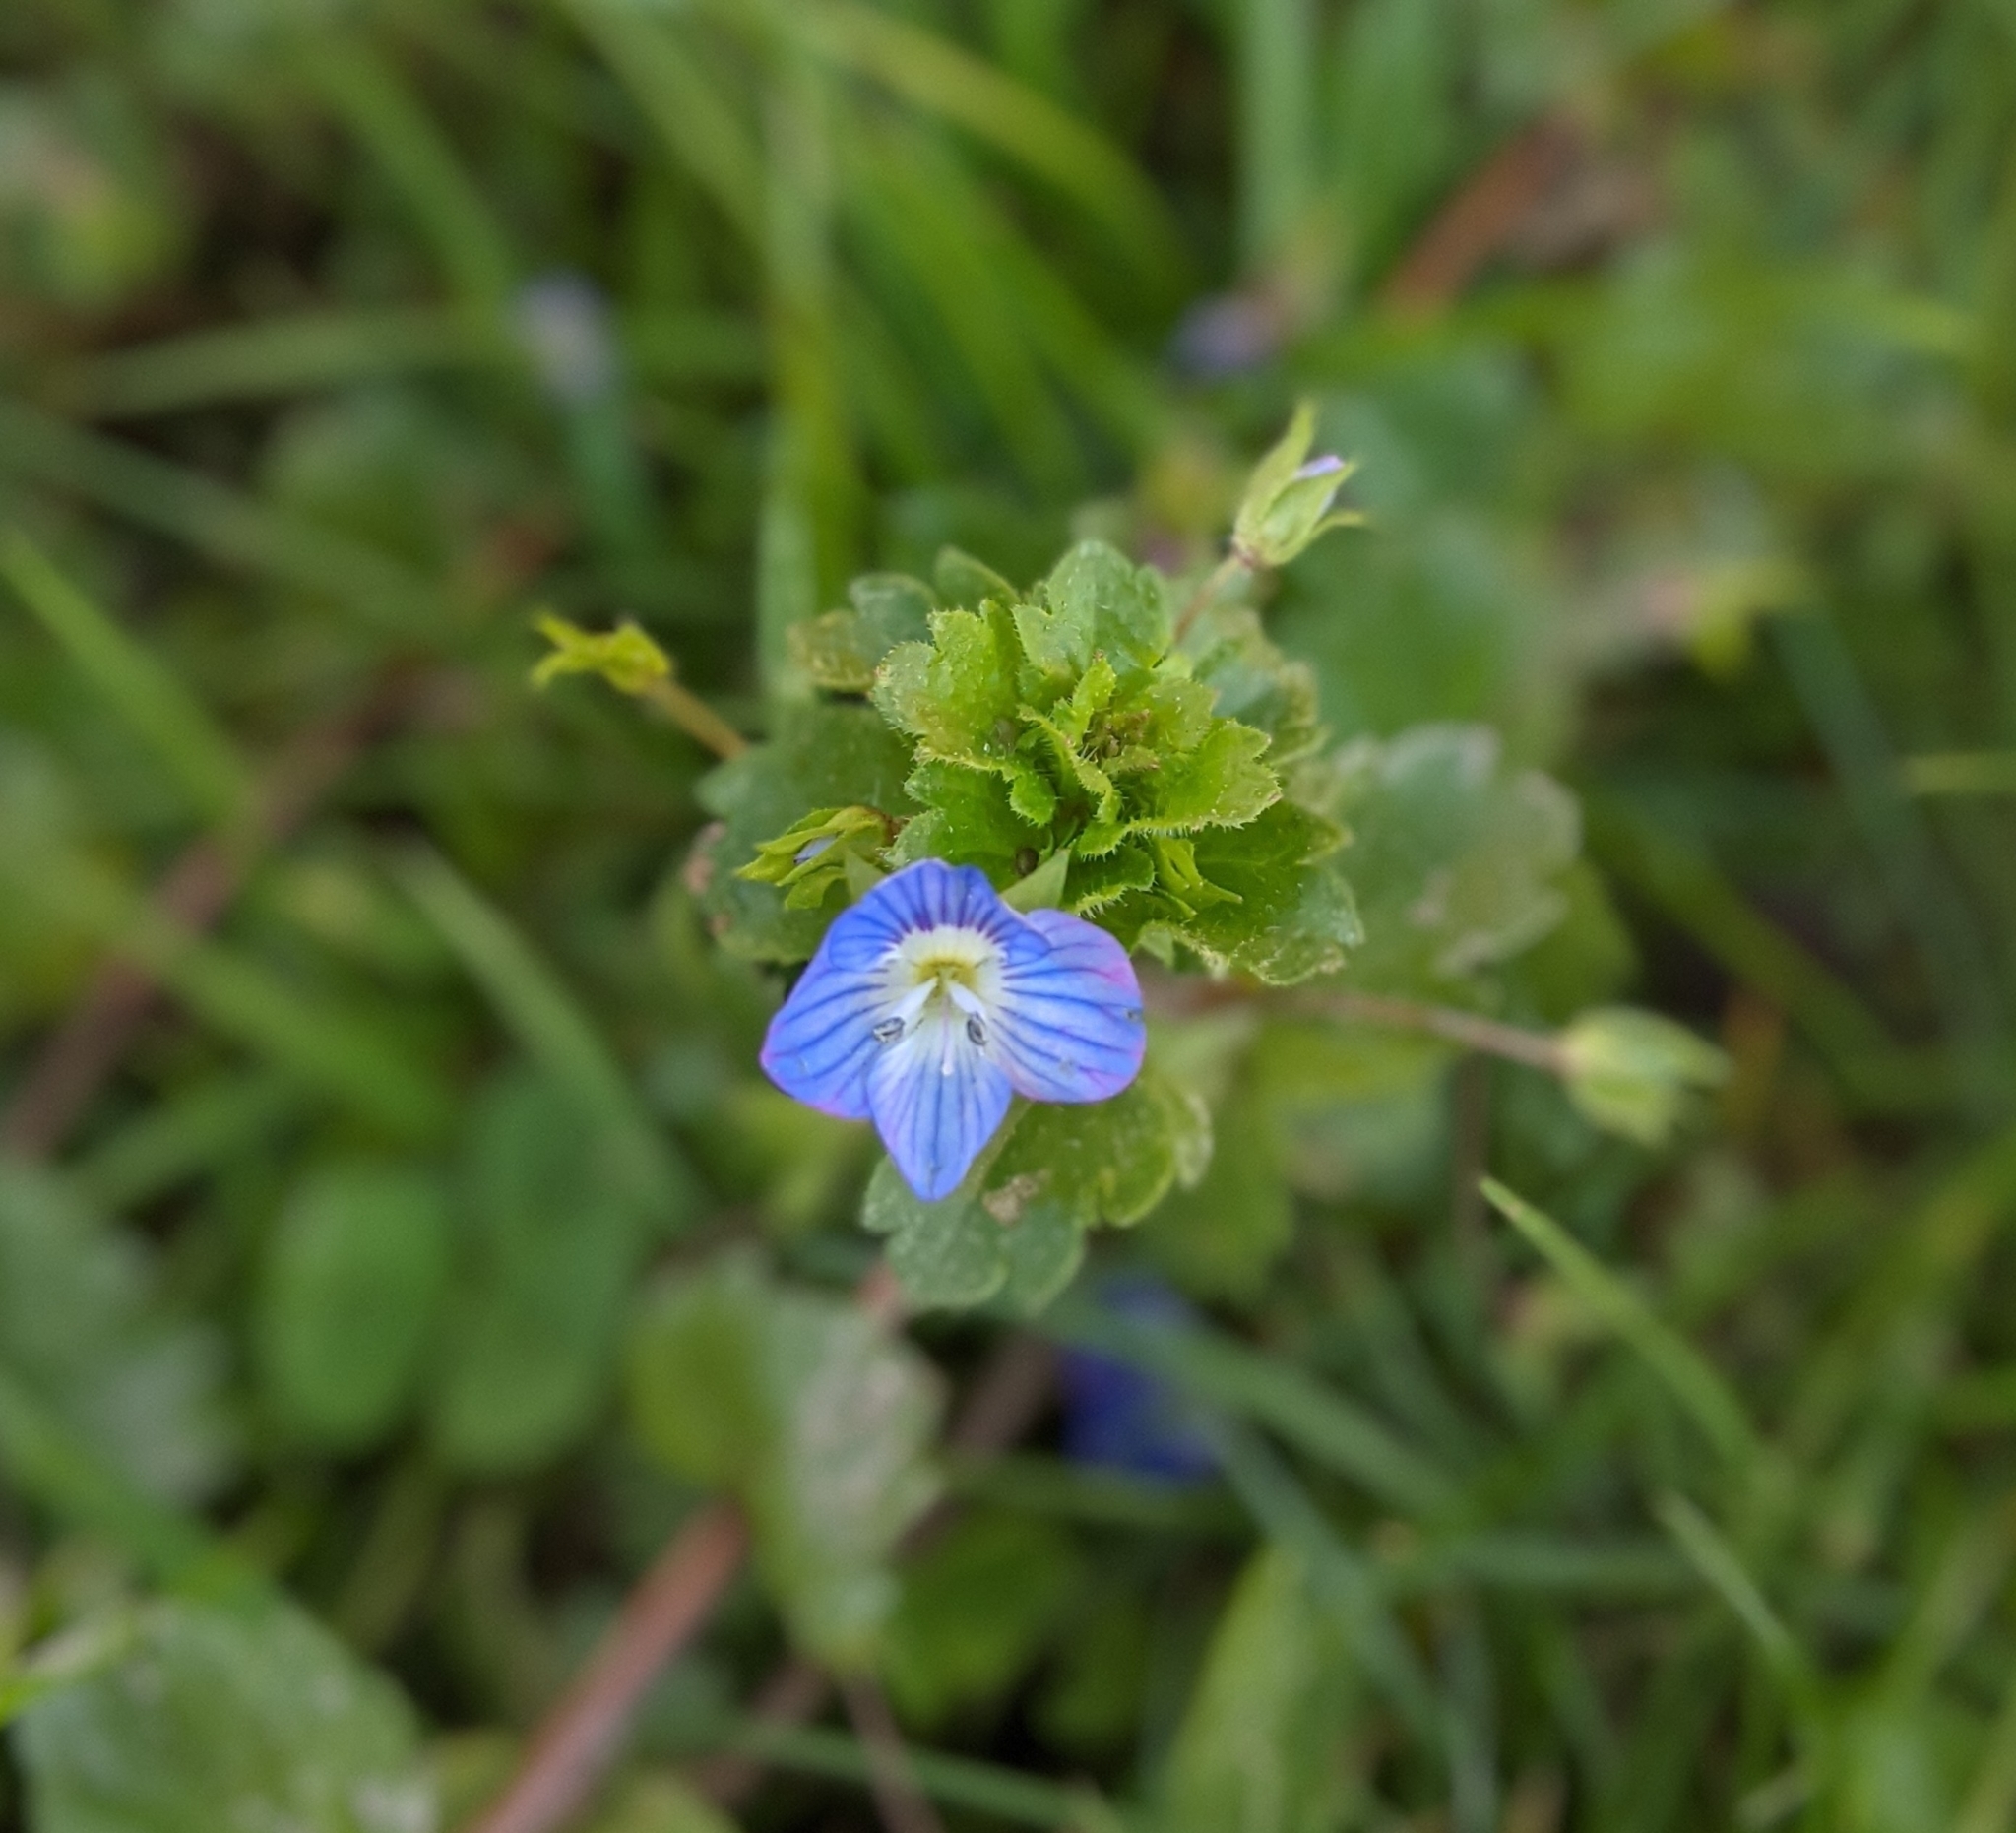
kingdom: Plantae
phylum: Tracheophyta
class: Magnoliopsida
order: Lamiales
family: Plantaginaceae
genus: Veronica
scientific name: Veronica persica
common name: Common field-speedwell
